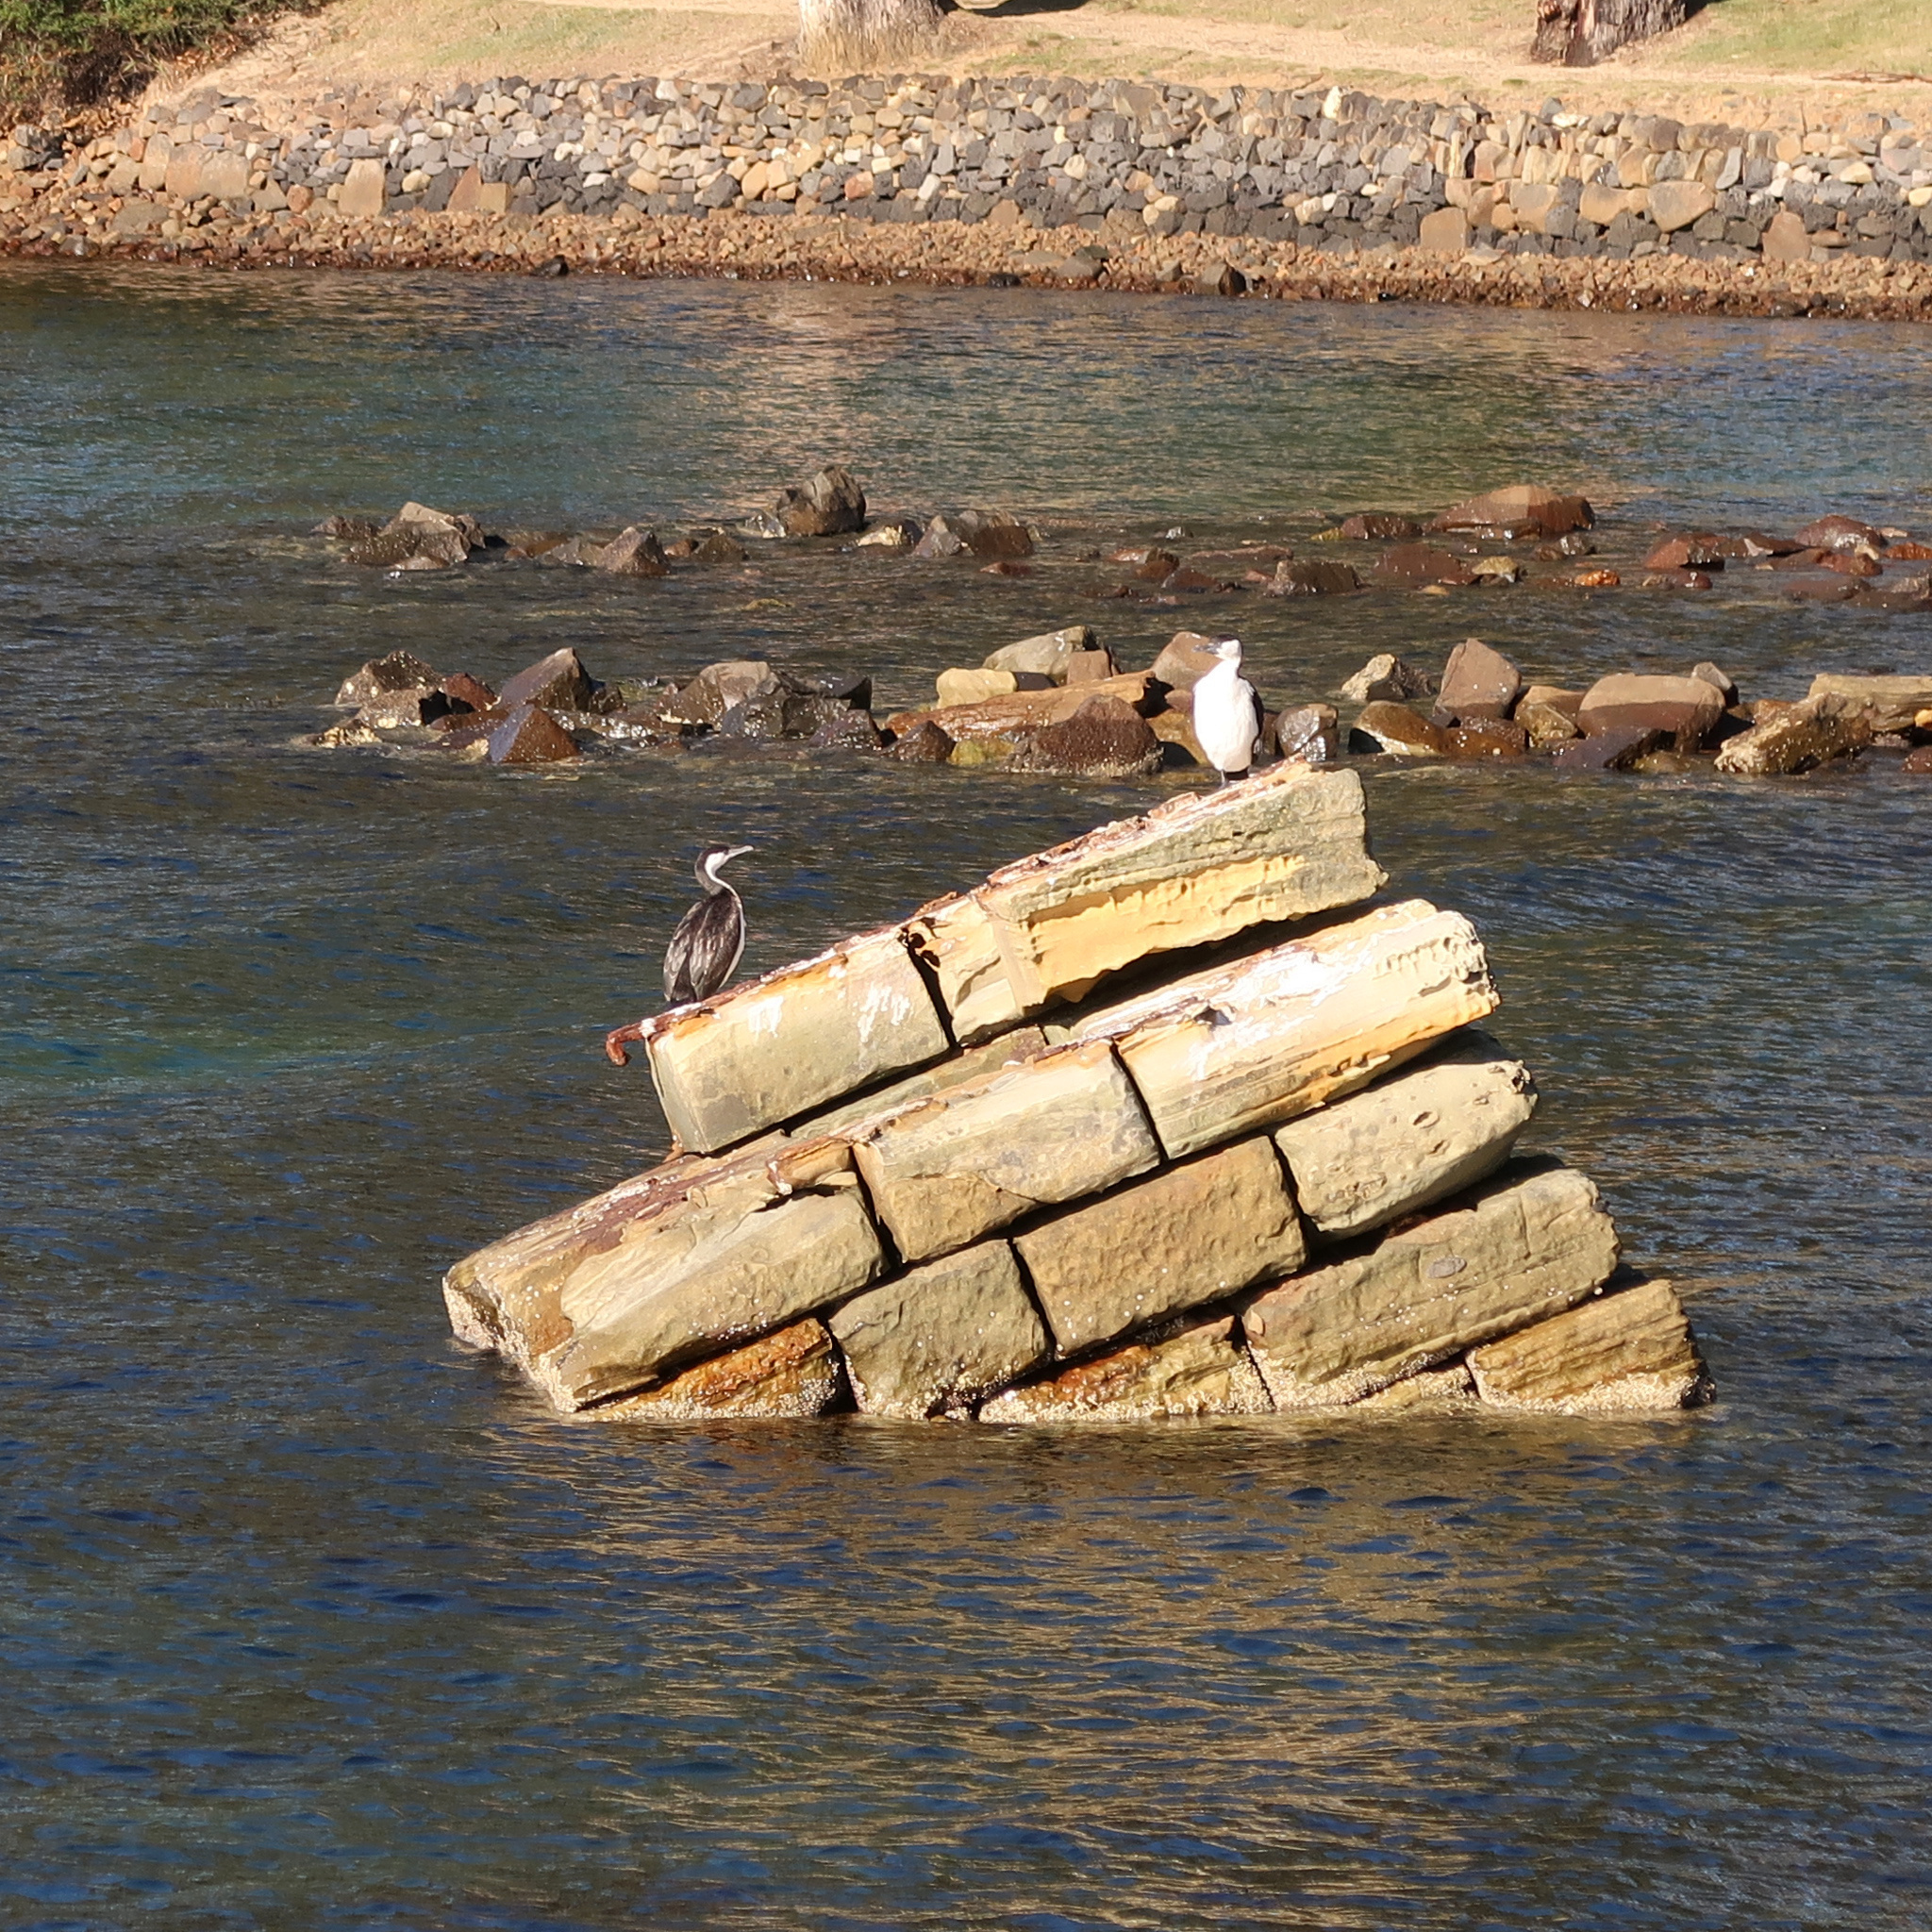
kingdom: Animalia
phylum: Chordata
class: Aves
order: Suliformes
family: Phalacrocoracidae
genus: Phalacrocorax
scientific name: Phalacrocorax fuscescens
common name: Black-faced cormorant
